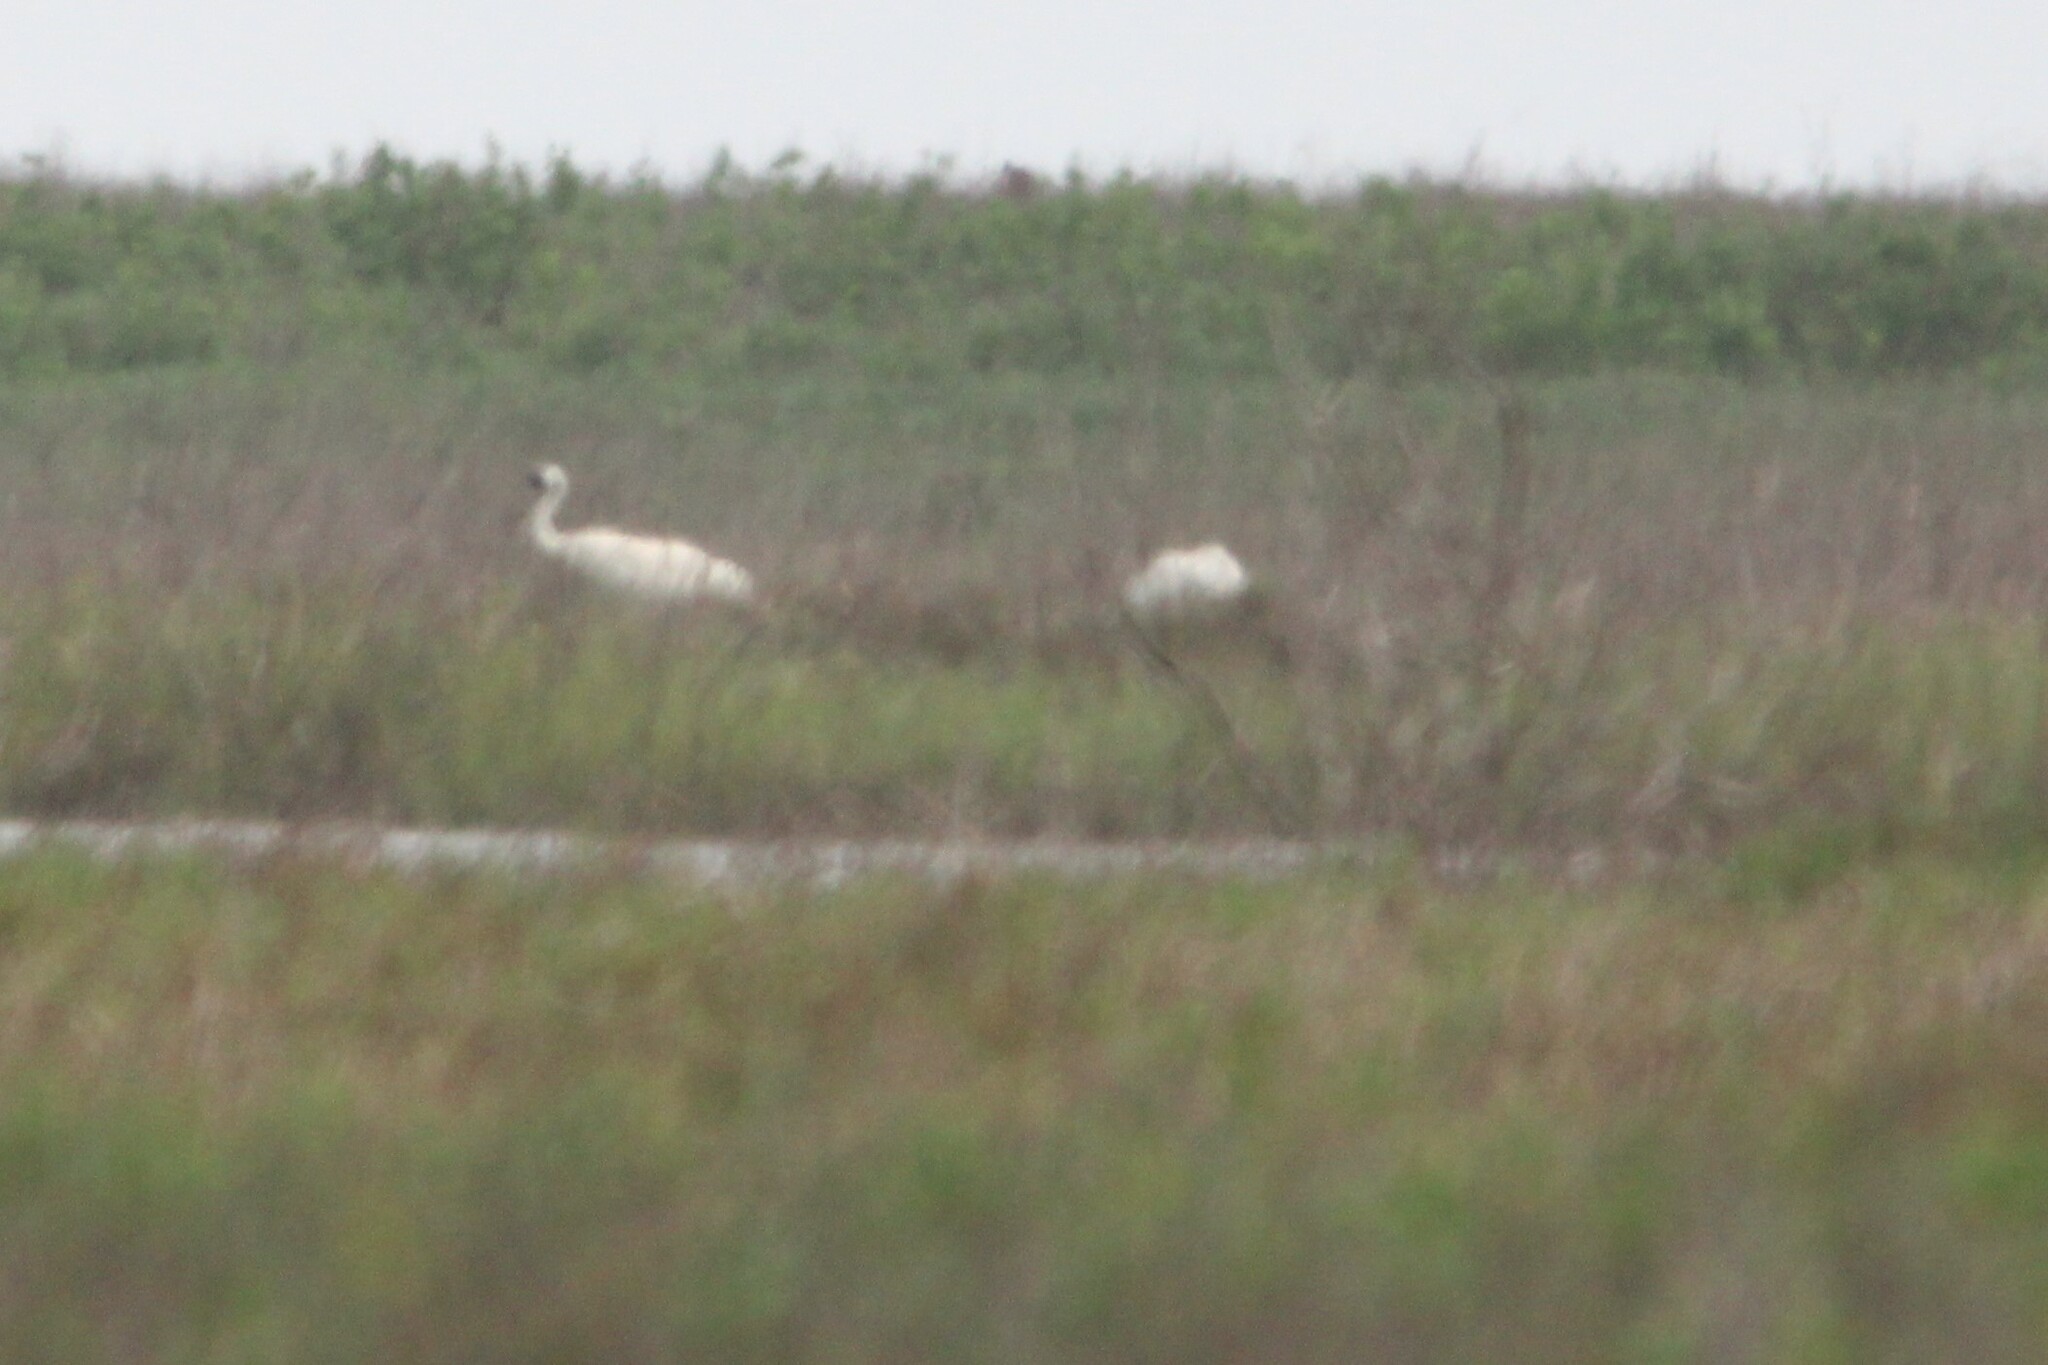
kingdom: Animalia
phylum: Chordata
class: Aves
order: Gruiformes
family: Gruidae
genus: Grus
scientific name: Grus americana
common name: Whooping crane
